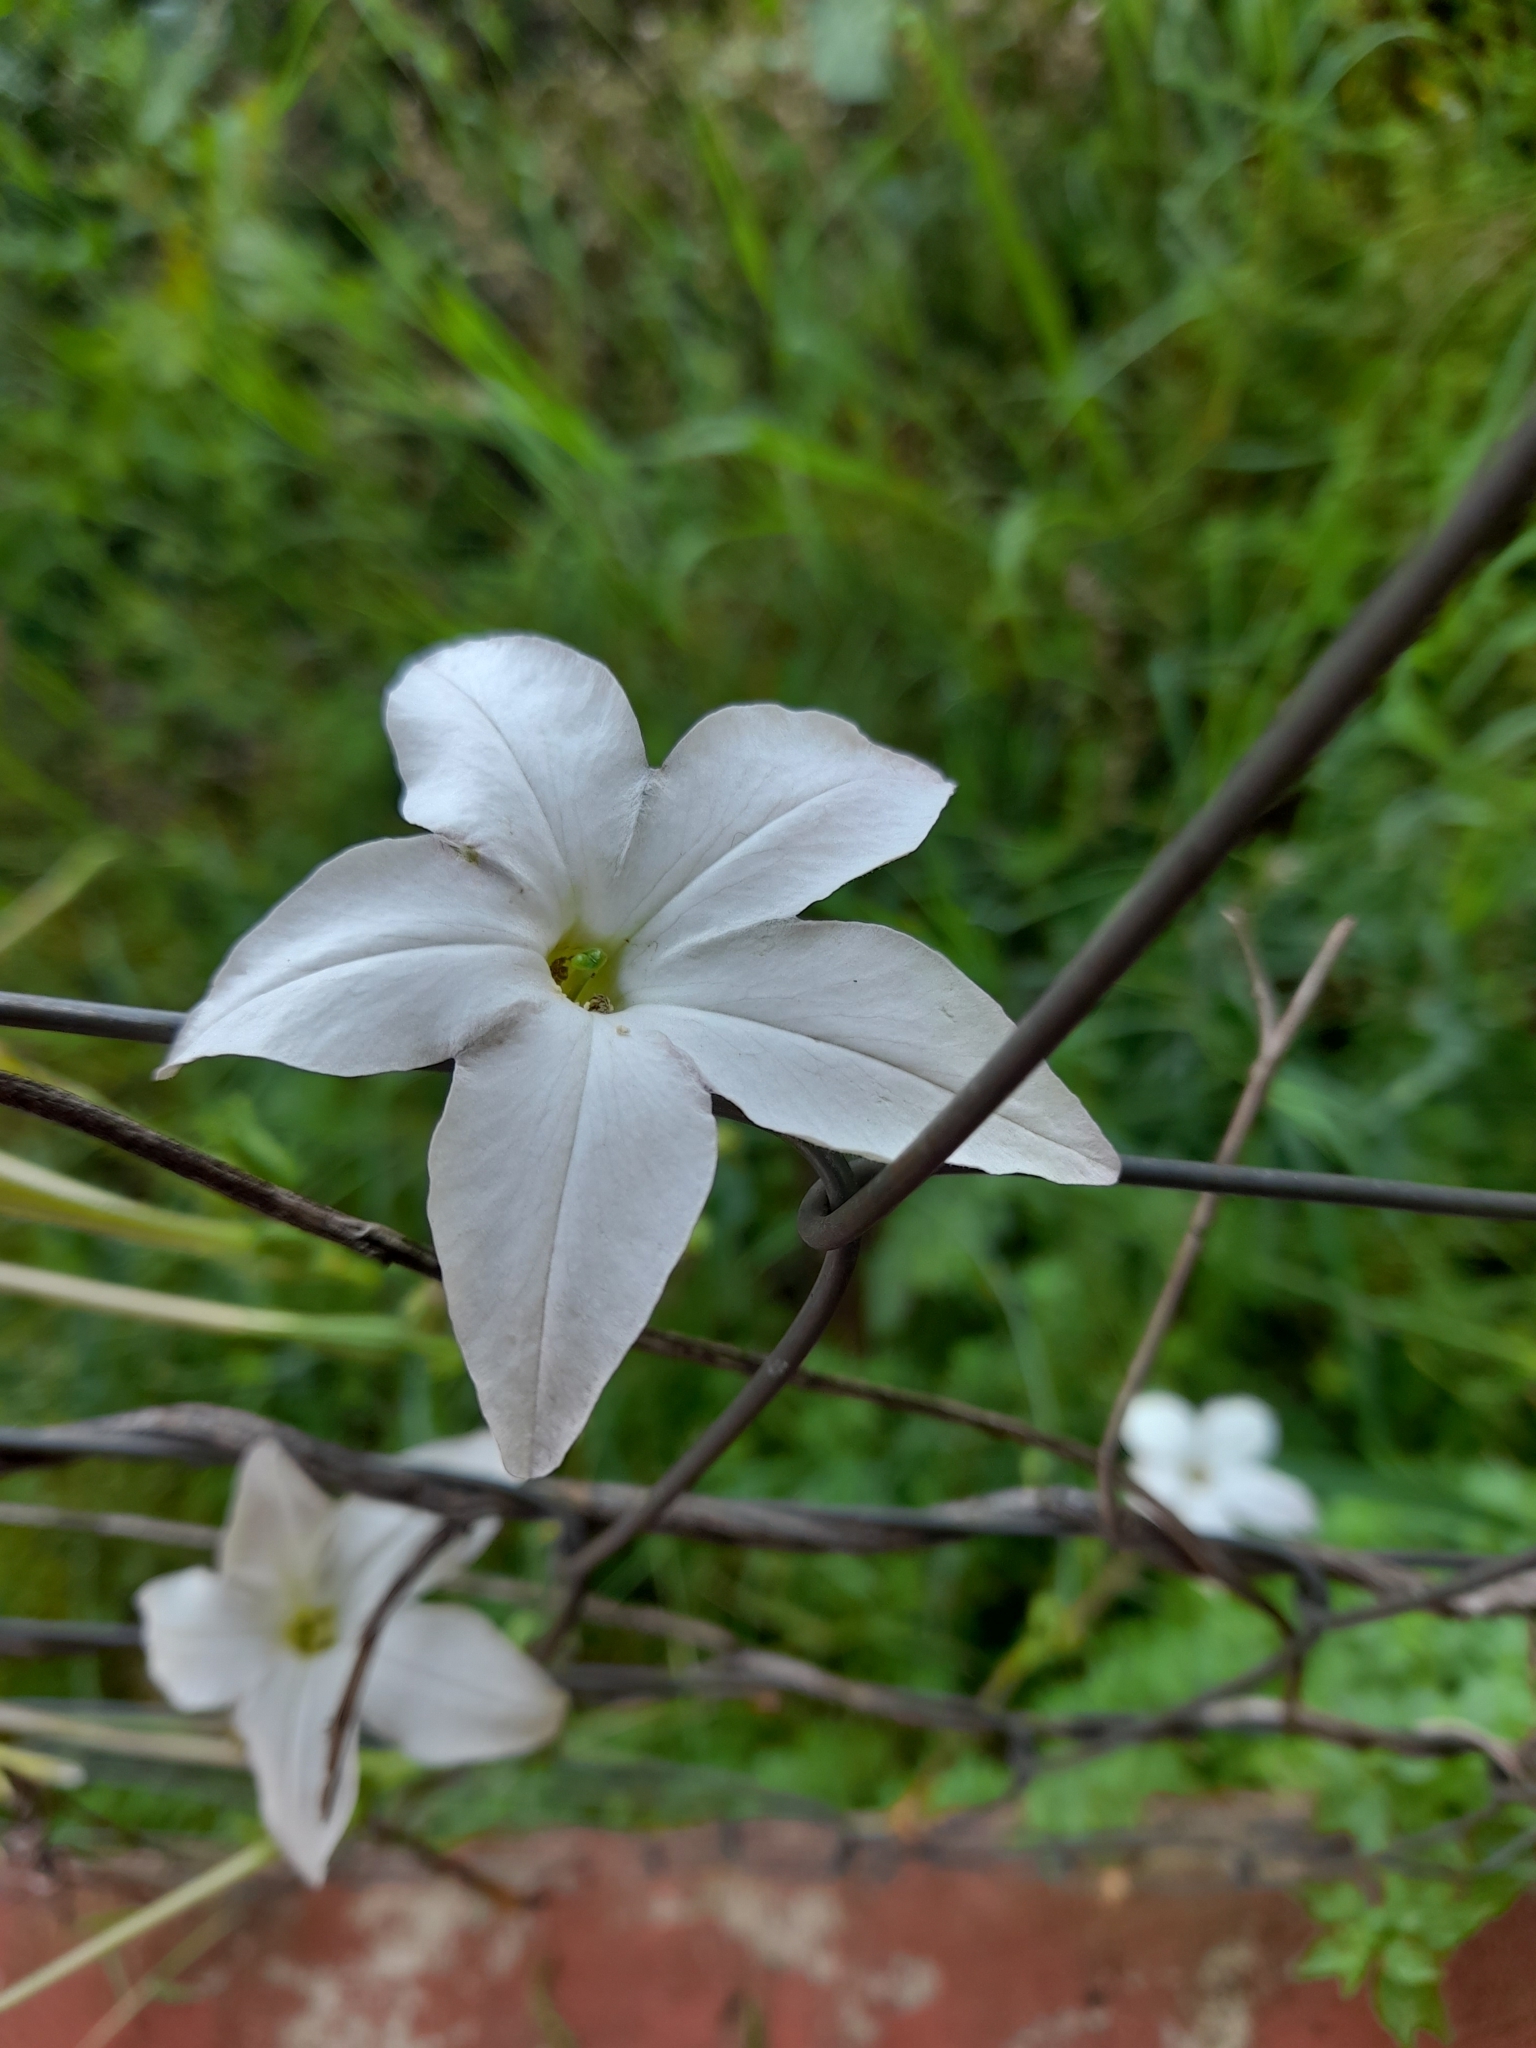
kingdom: Plantae
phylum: Tracheophyta
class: Magnoliopsida
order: Solanales
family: Solanaceae
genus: Nicotiana
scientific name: Nicotiana longiflora
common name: Long-flowered tobacco
